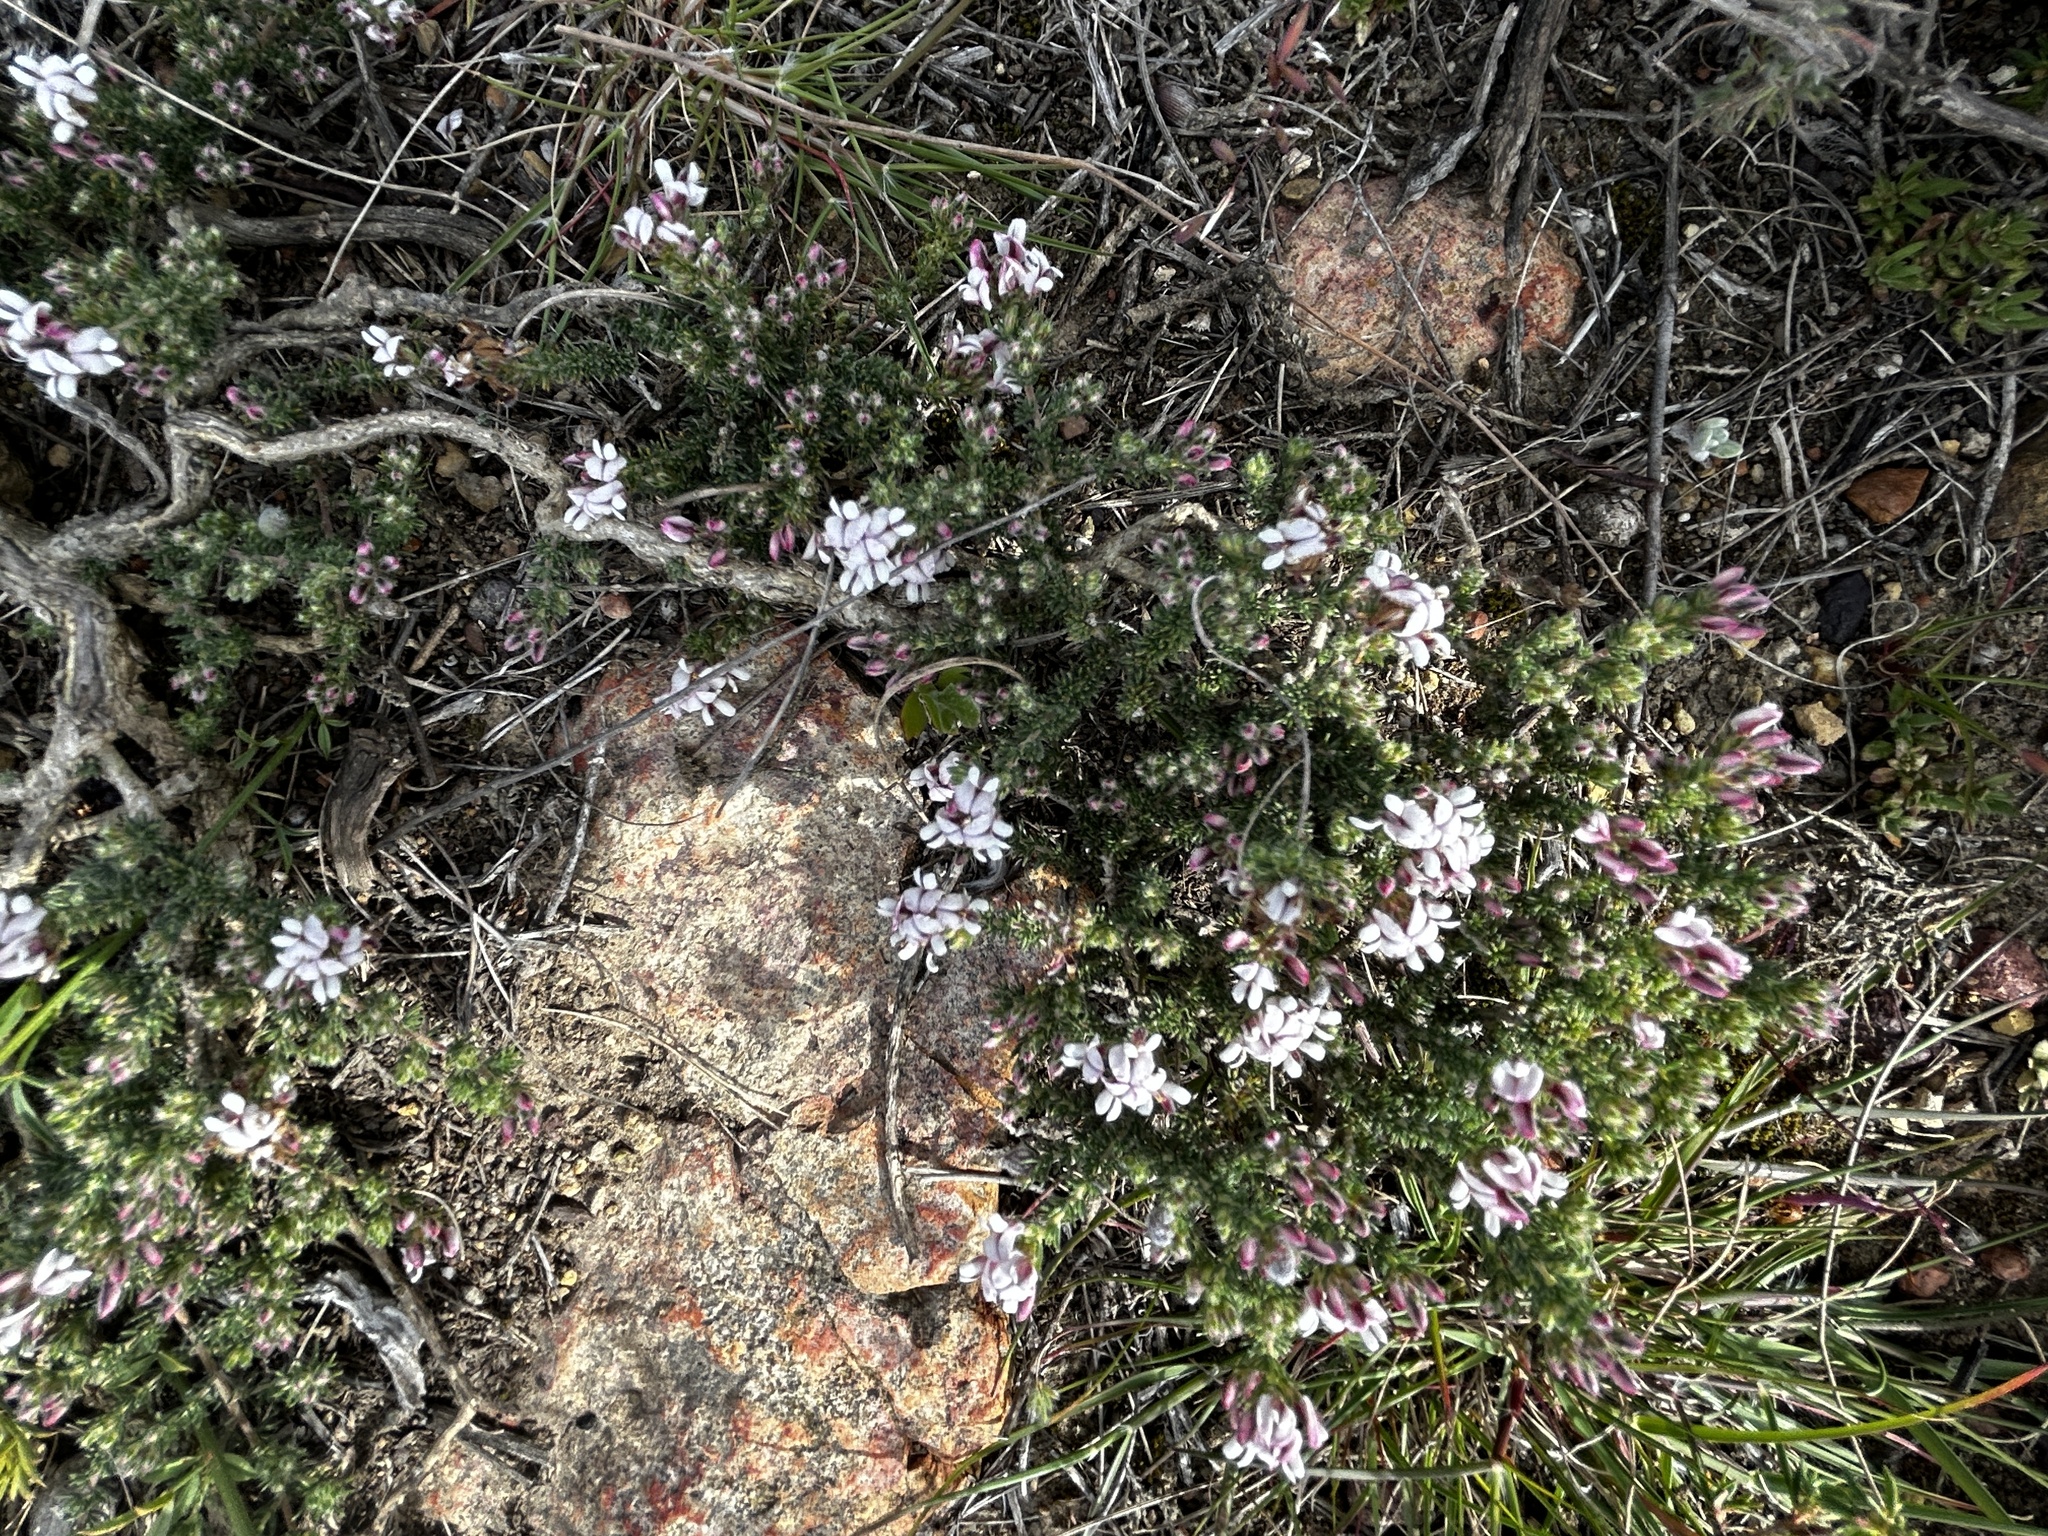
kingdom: Plantae
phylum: Tracheophyta
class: Magnoliopsida
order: Fabales
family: Fabaceae
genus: Aspalathus
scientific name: Aspalathus nigra
